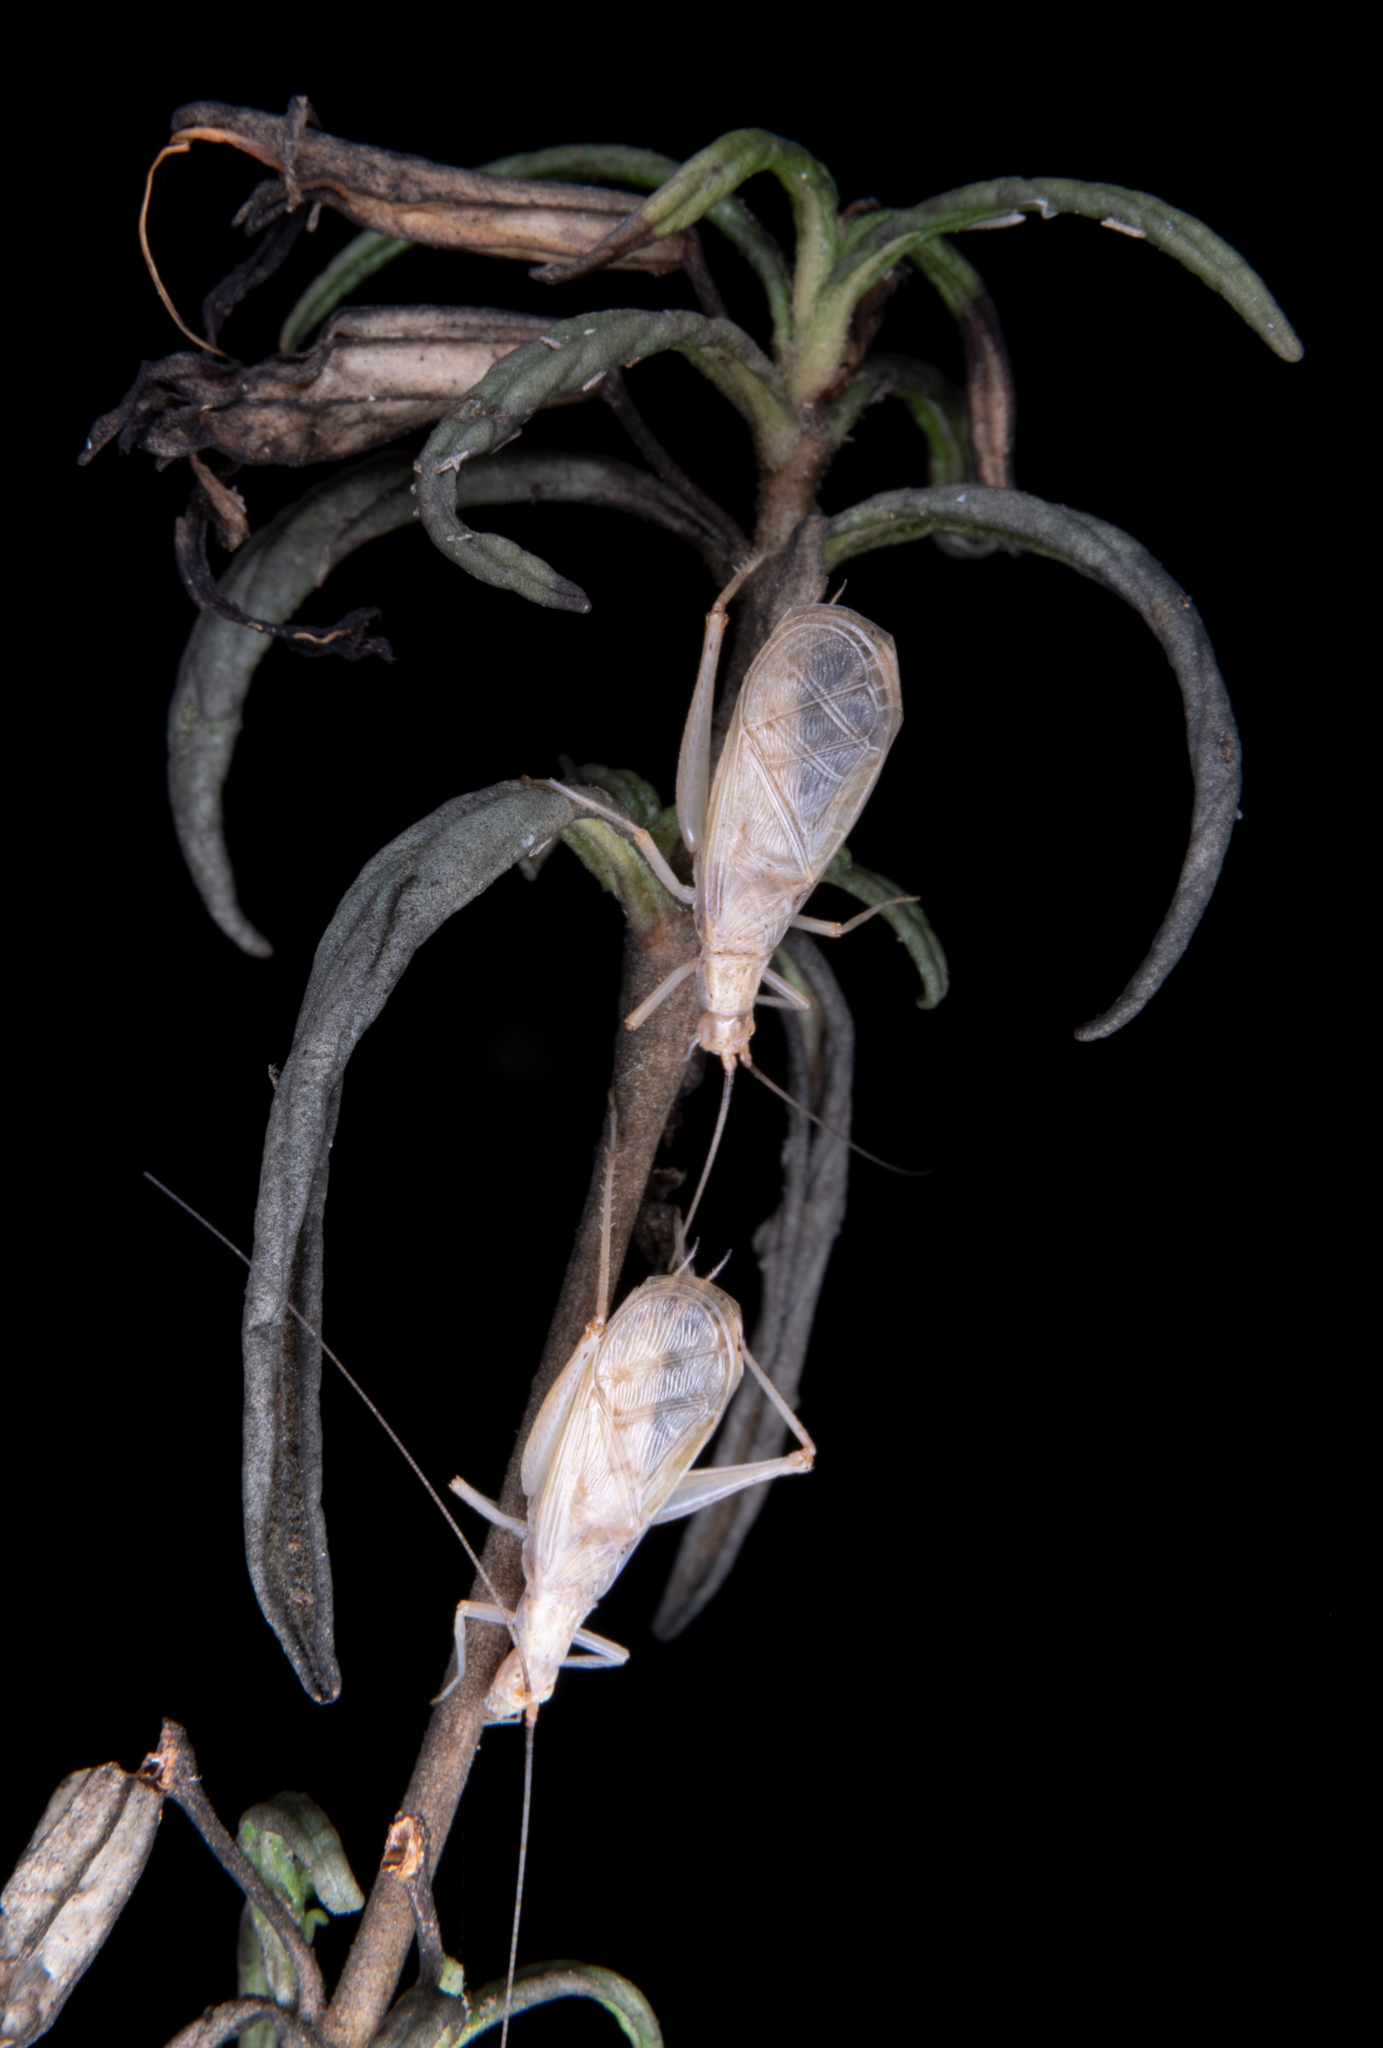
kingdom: Animalia
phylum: Arthropoda
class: Insecta
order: Orthoptera
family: Gryllidae
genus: Oecanthus
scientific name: Oecanthus californicus
